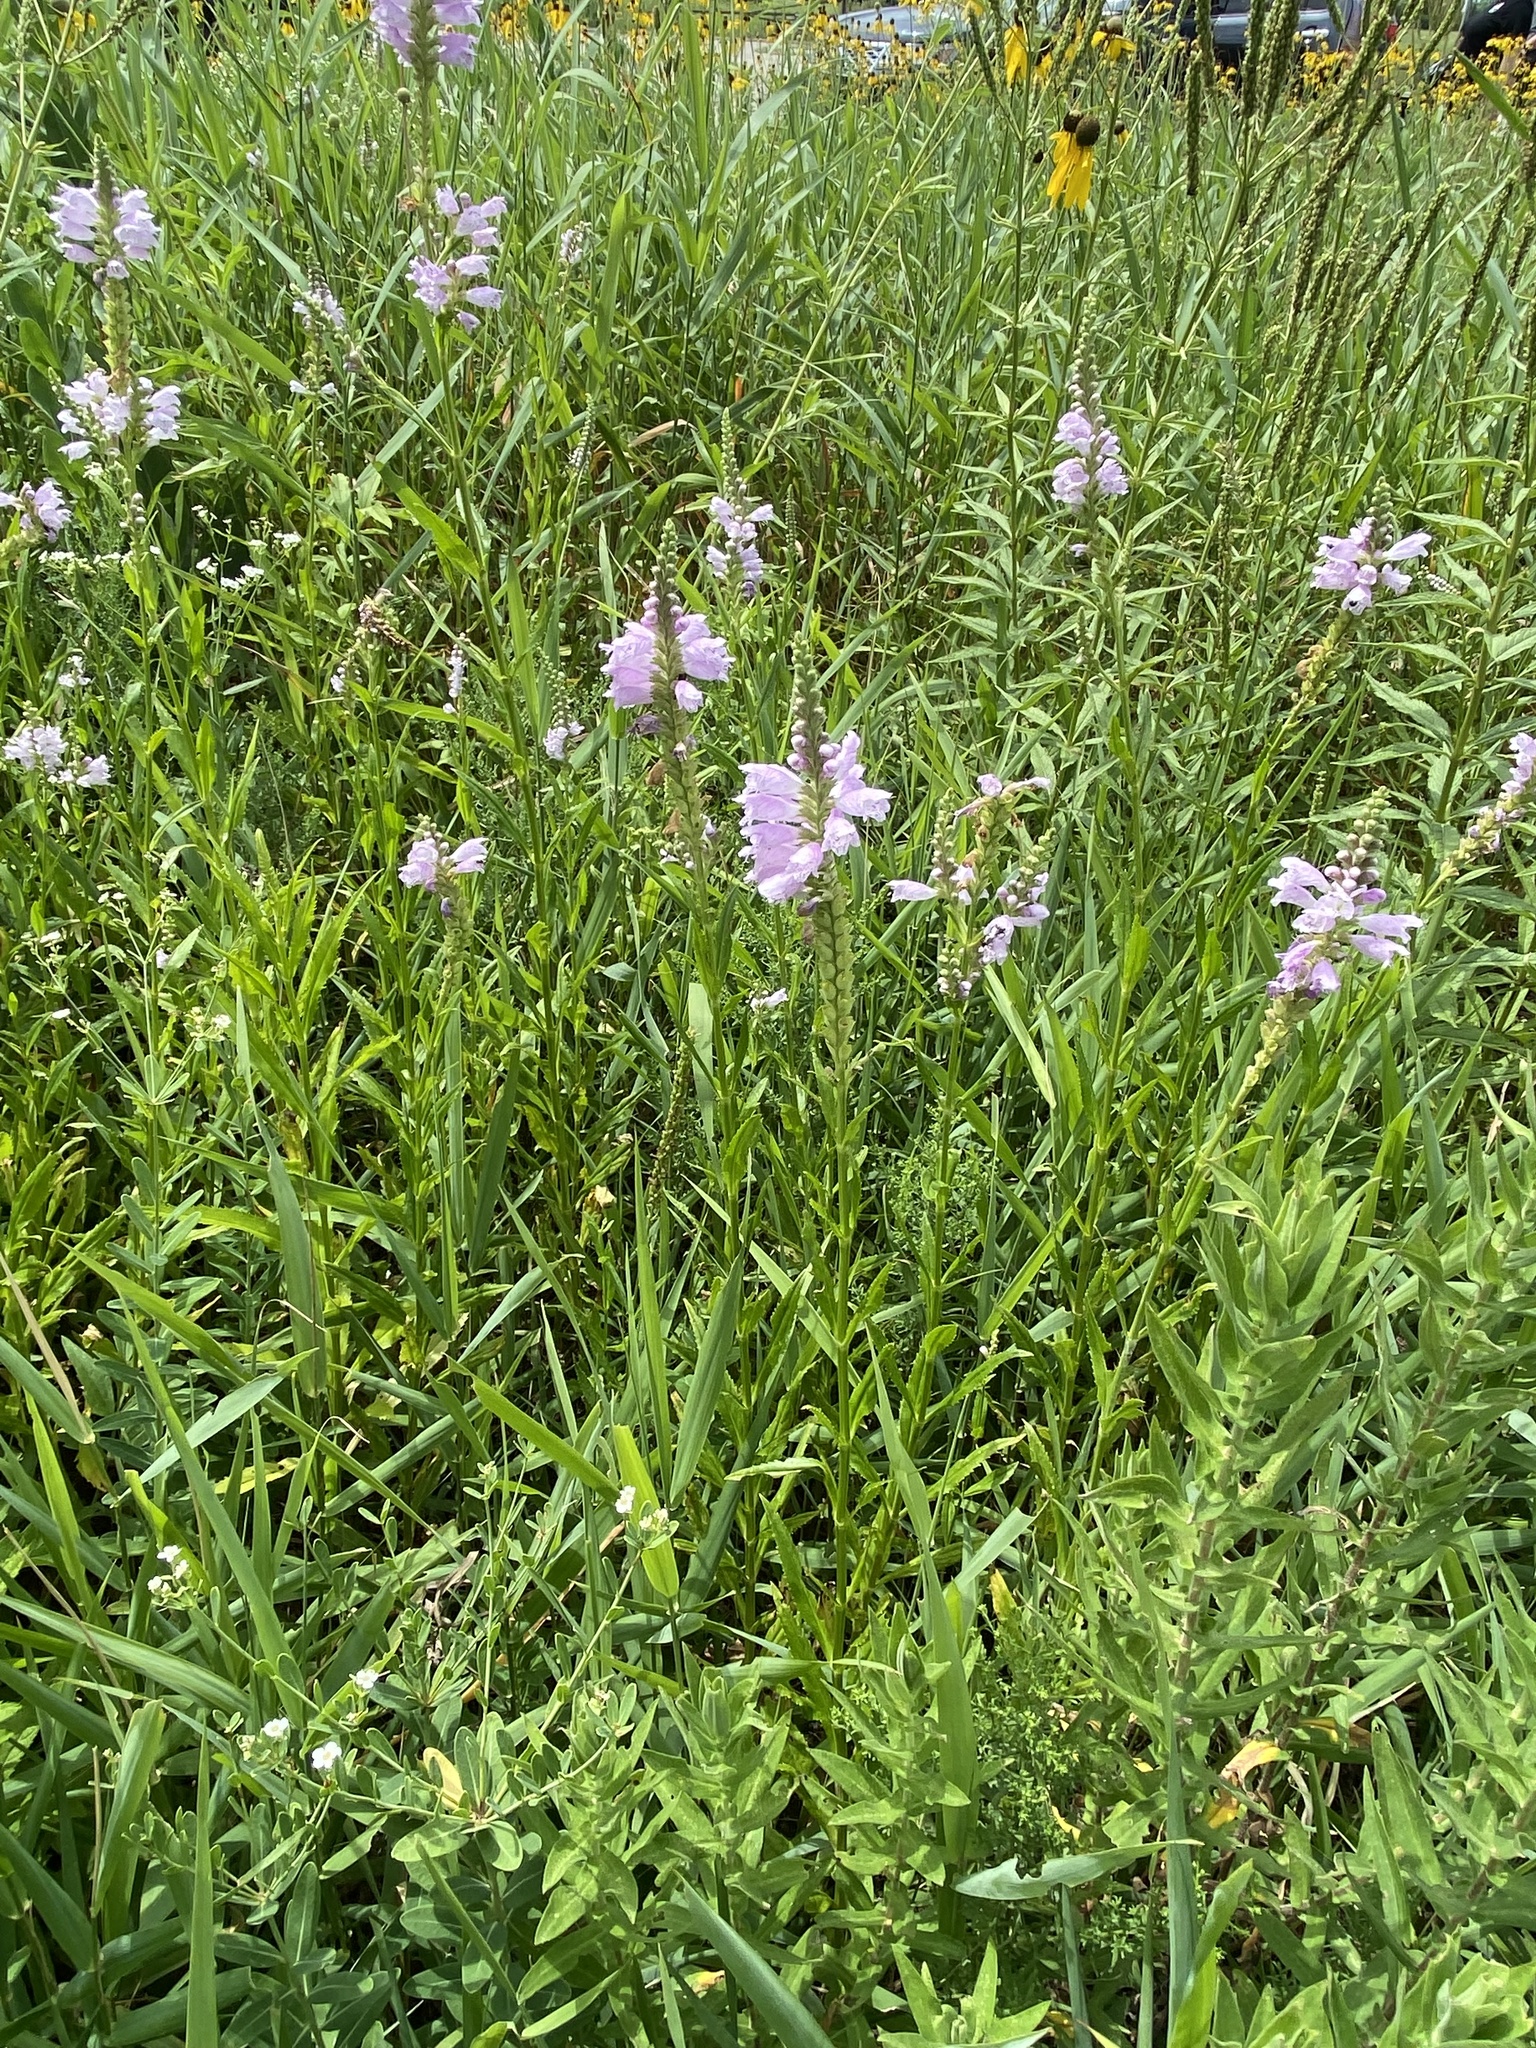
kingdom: Plantae
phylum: Tracheophyta
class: Magnoliopsida
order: Lamiales
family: Lamiaceae
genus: Physostegia
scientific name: Physostegia virginiana
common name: Obedient-plant
